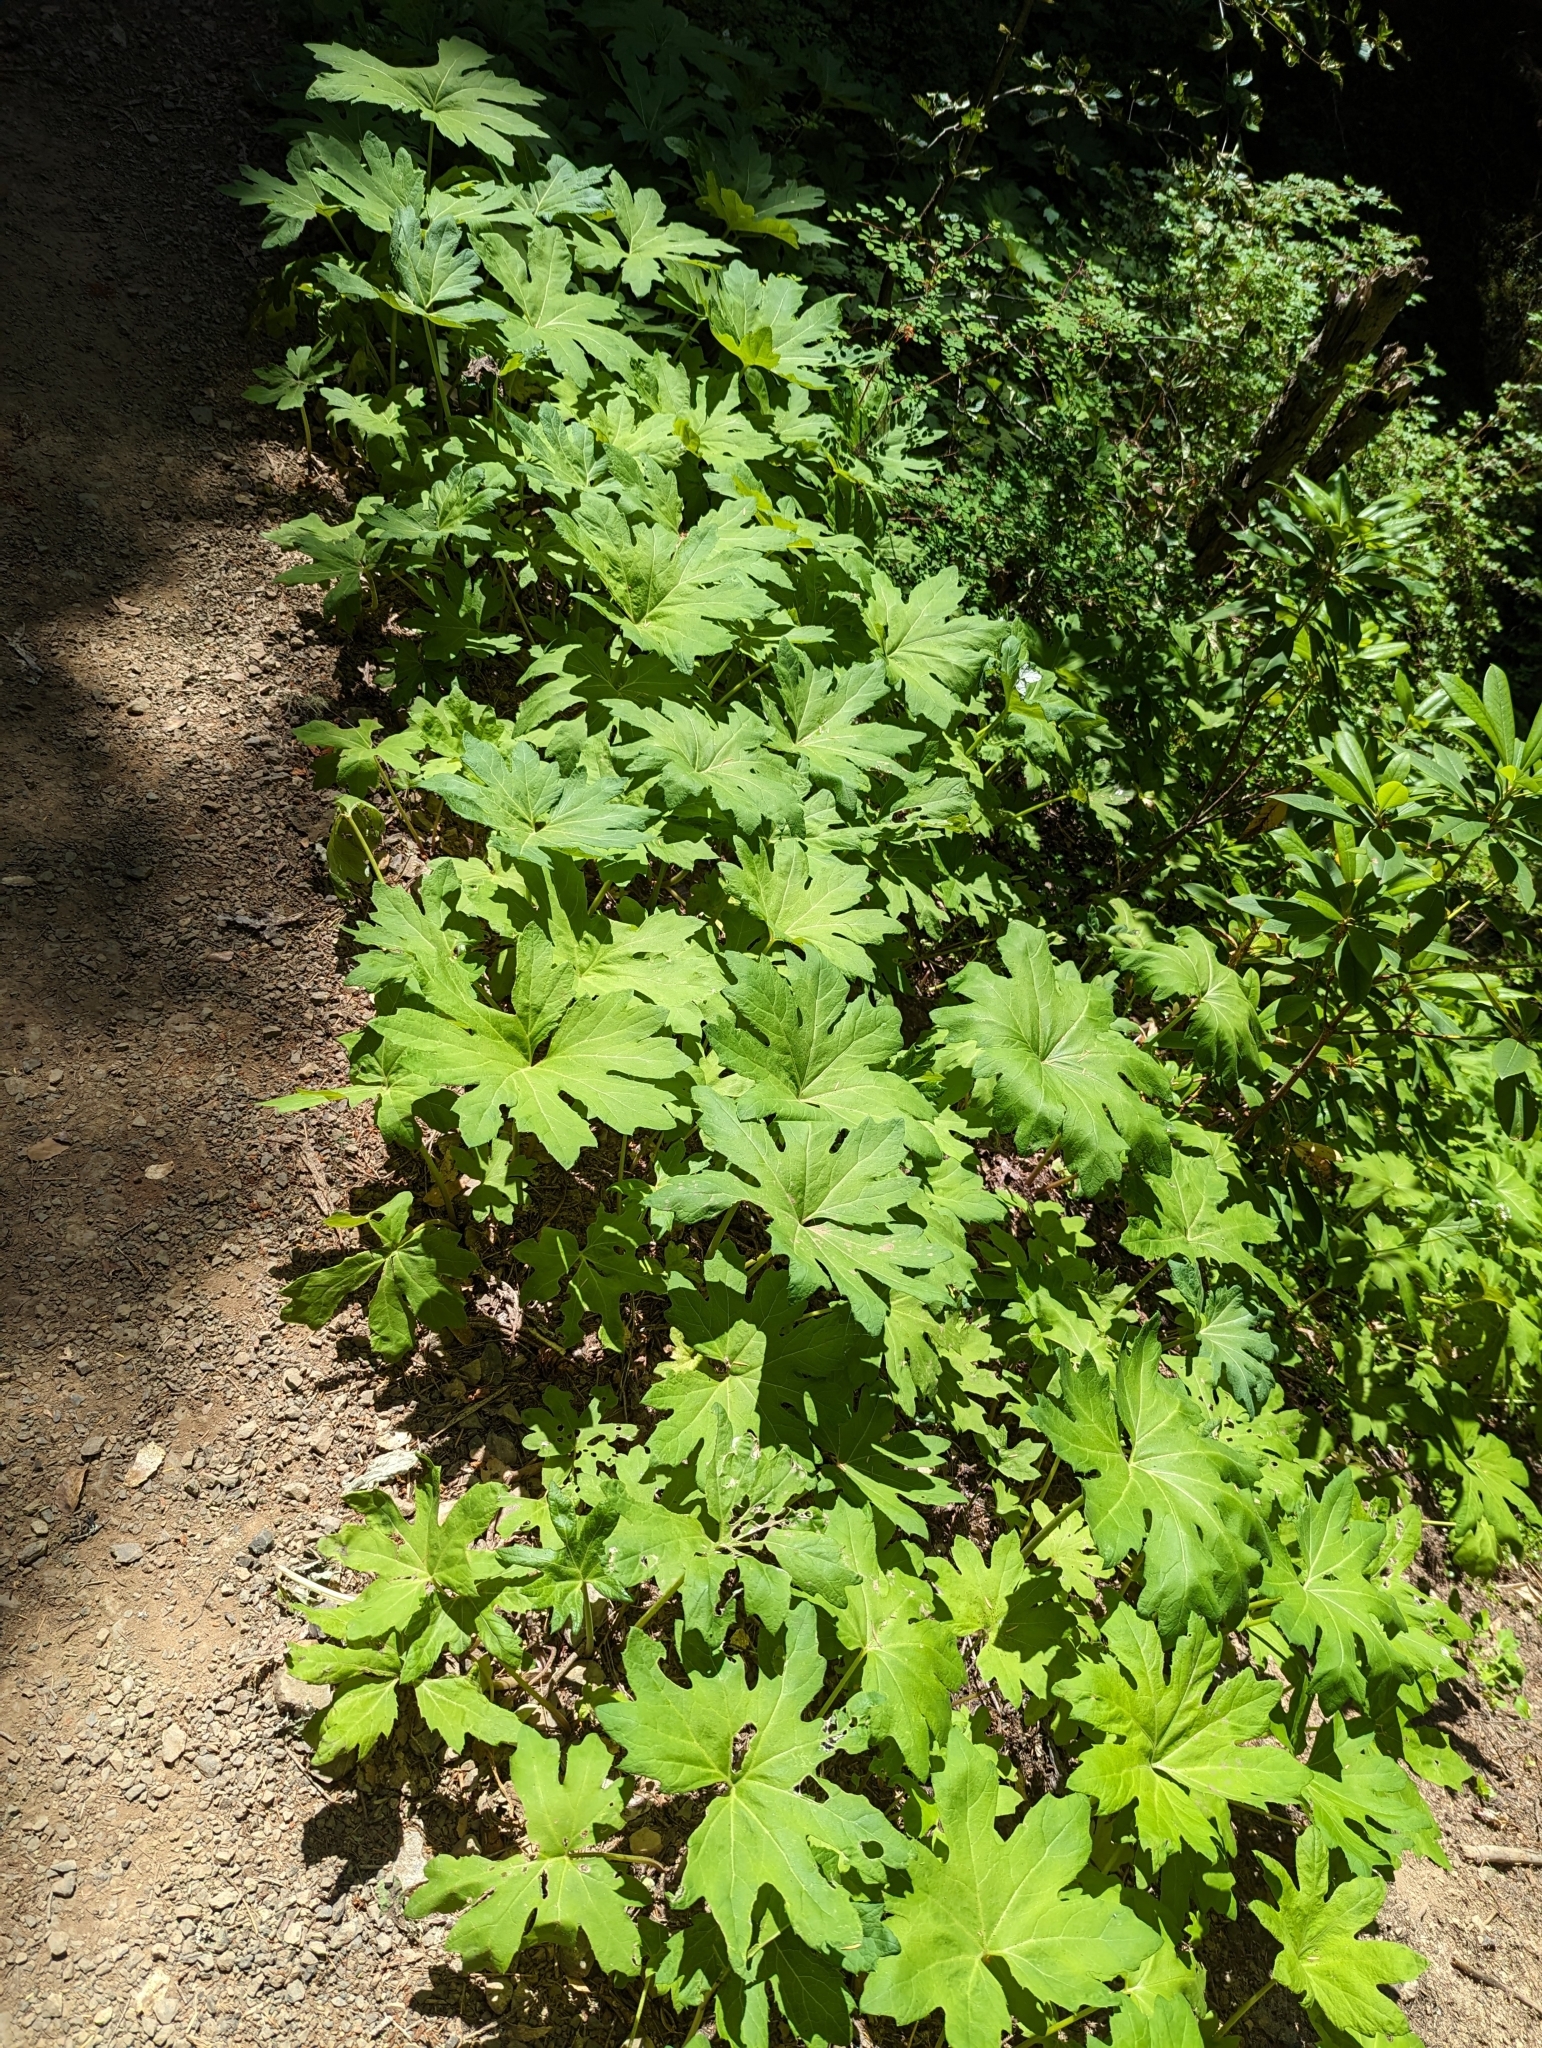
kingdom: Plantae
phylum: Tracheophyta
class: Magnoliopsida
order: Asterales
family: Asteraceae
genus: Petasites
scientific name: Petasites frigidus
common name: Arctic butterbur
